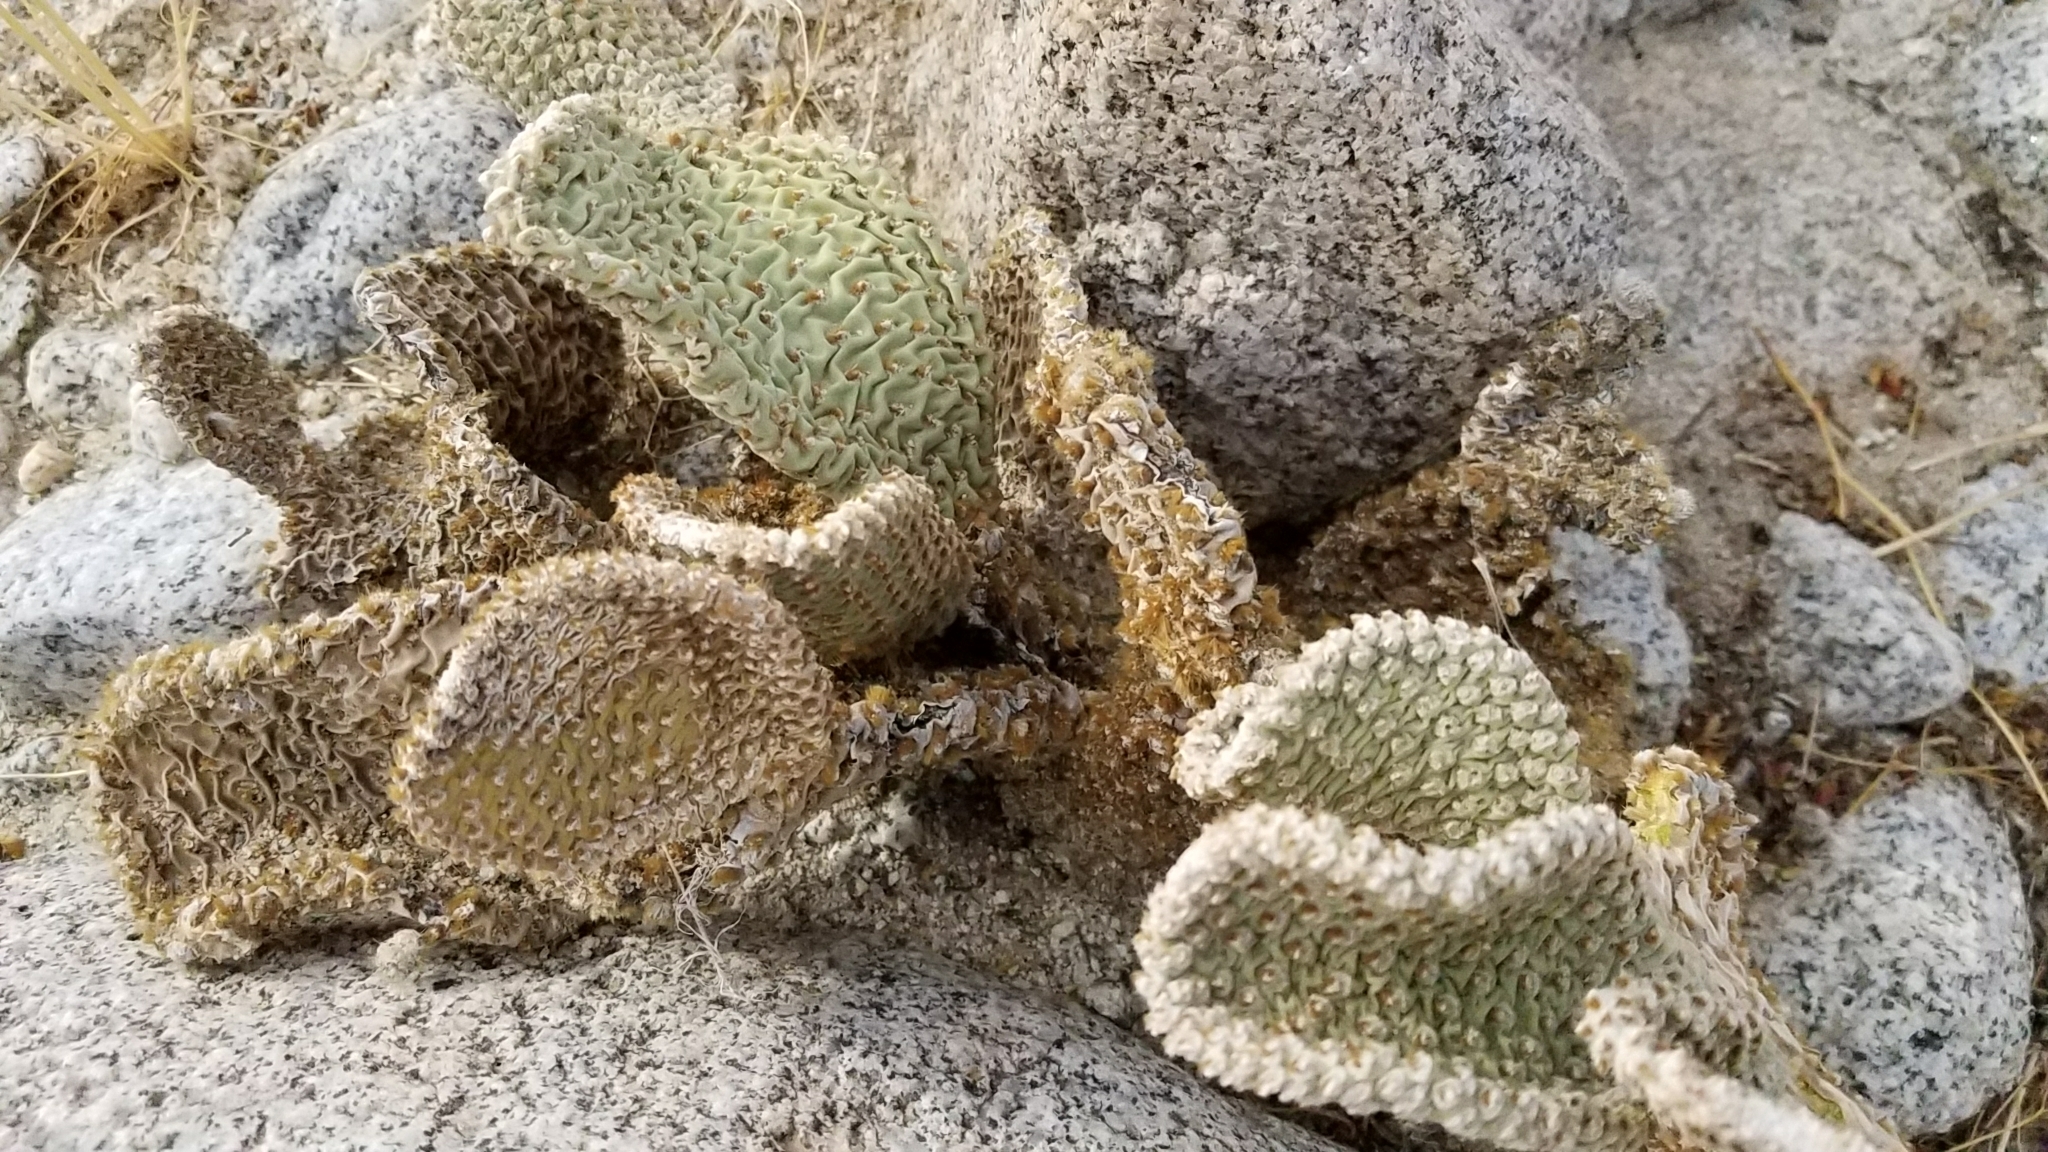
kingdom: Plantae
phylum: Tracheophyta
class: Magnoliopsida
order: Caryophyllales
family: Cactaceae
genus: Opuntia
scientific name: Opuntia basilaris
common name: Beavertail prickly-pear
